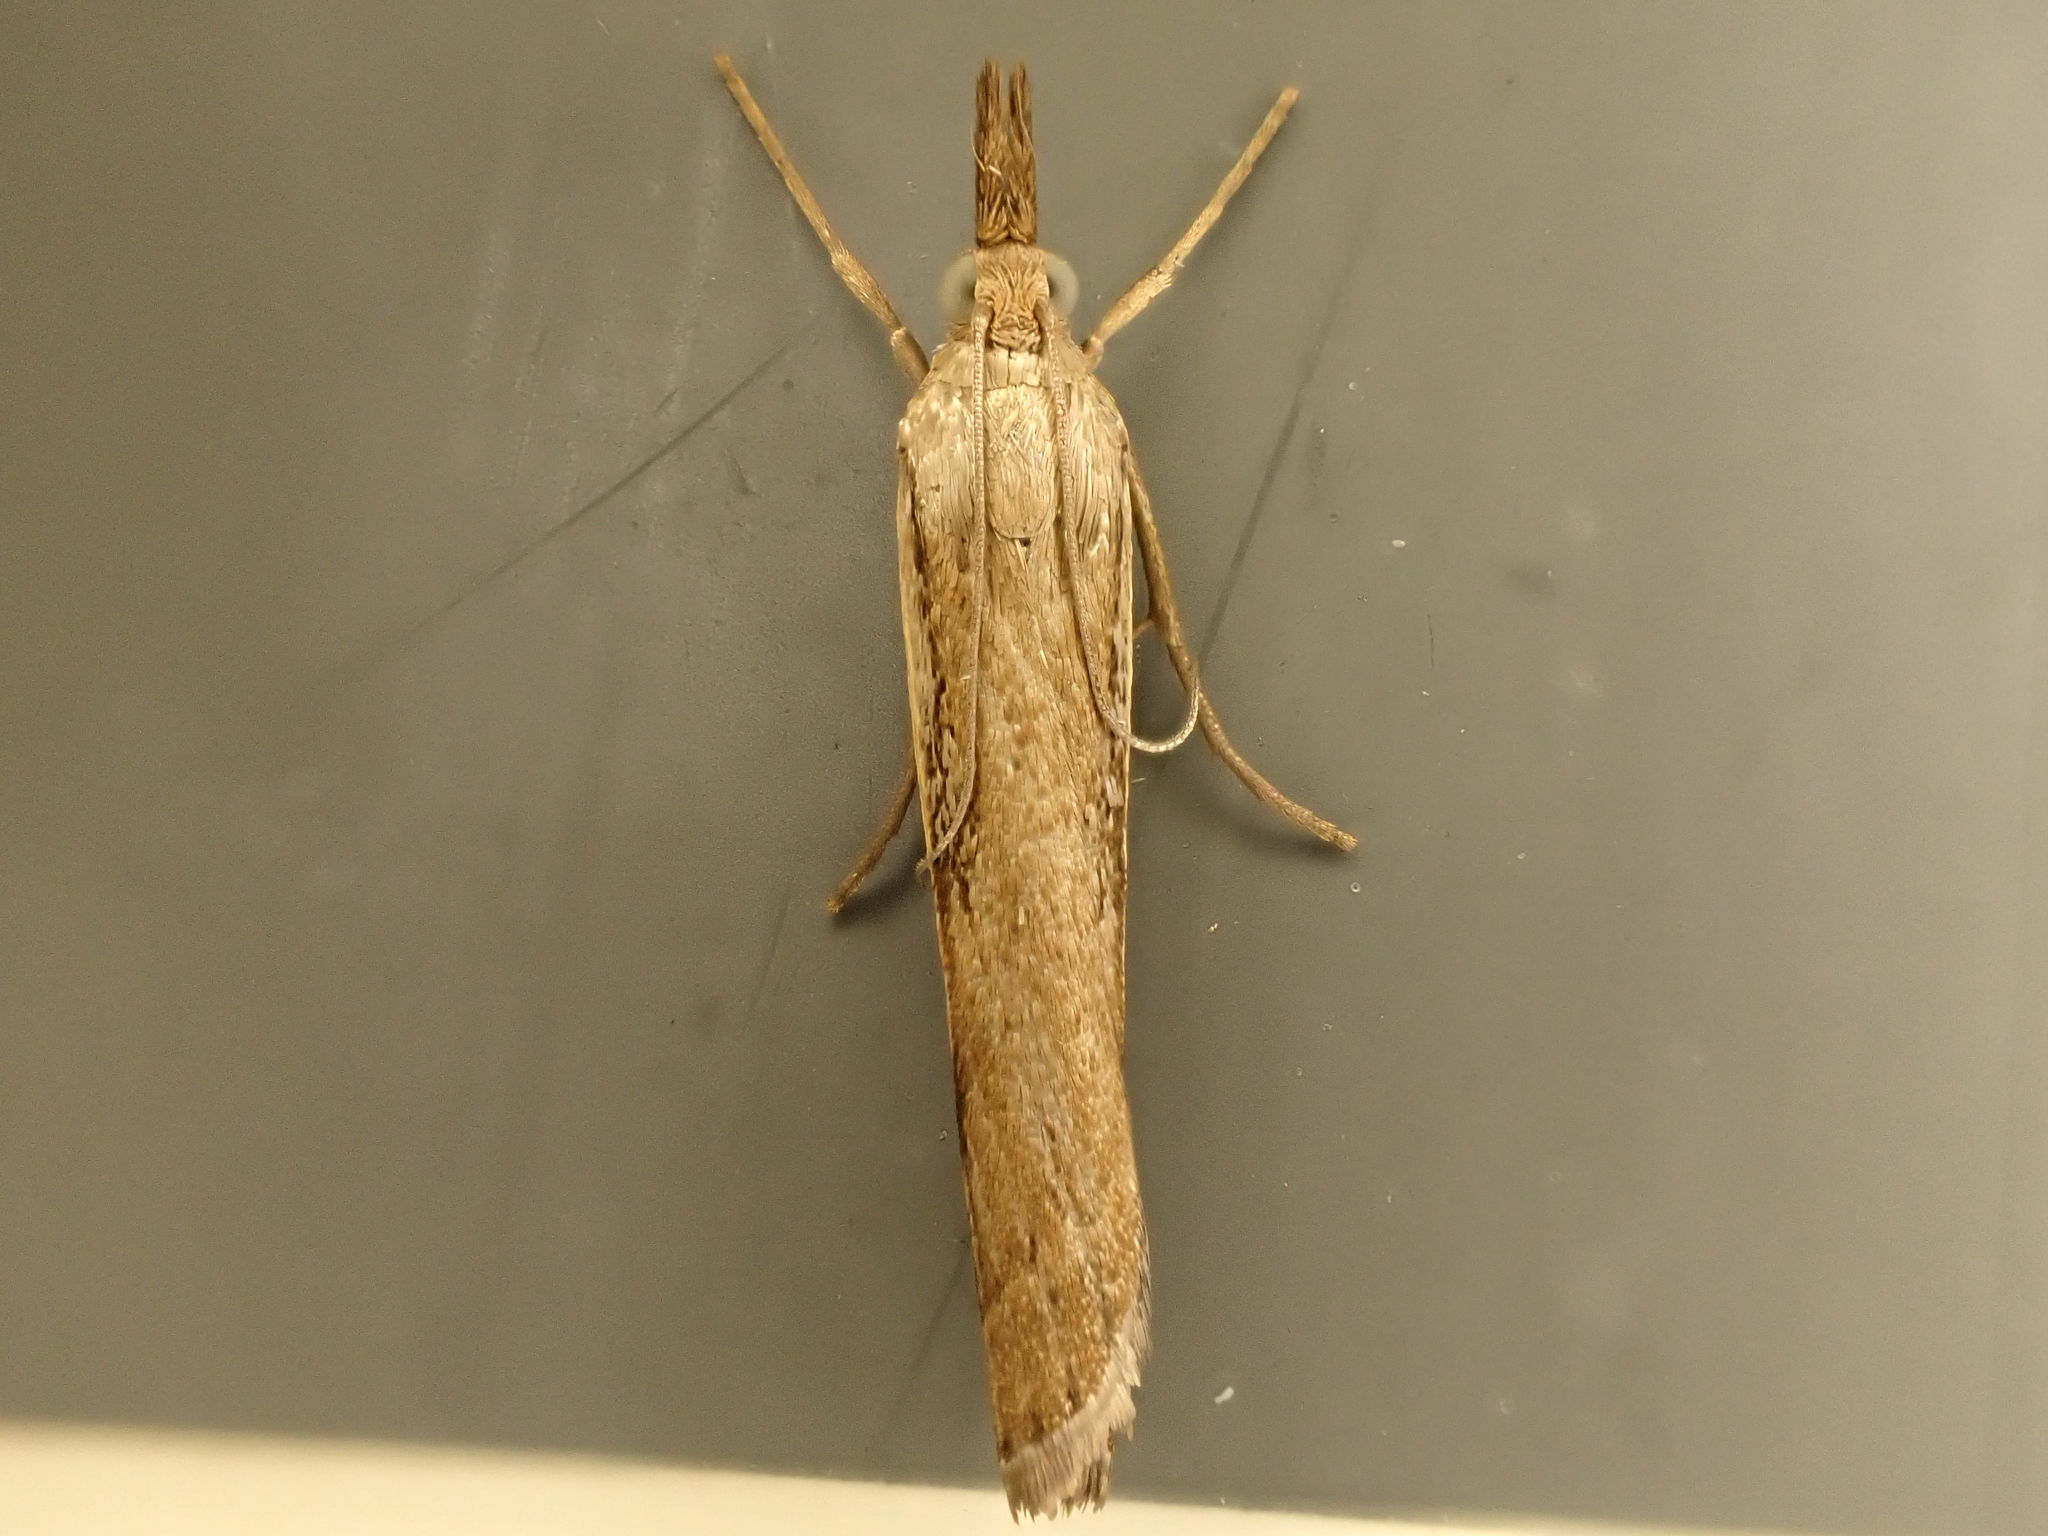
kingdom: Animalia
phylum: Arthropoda
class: Insecta
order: Lepidoptera
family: Crambidae
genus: Orocrambus
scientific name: Orocrambus flexuosellus
